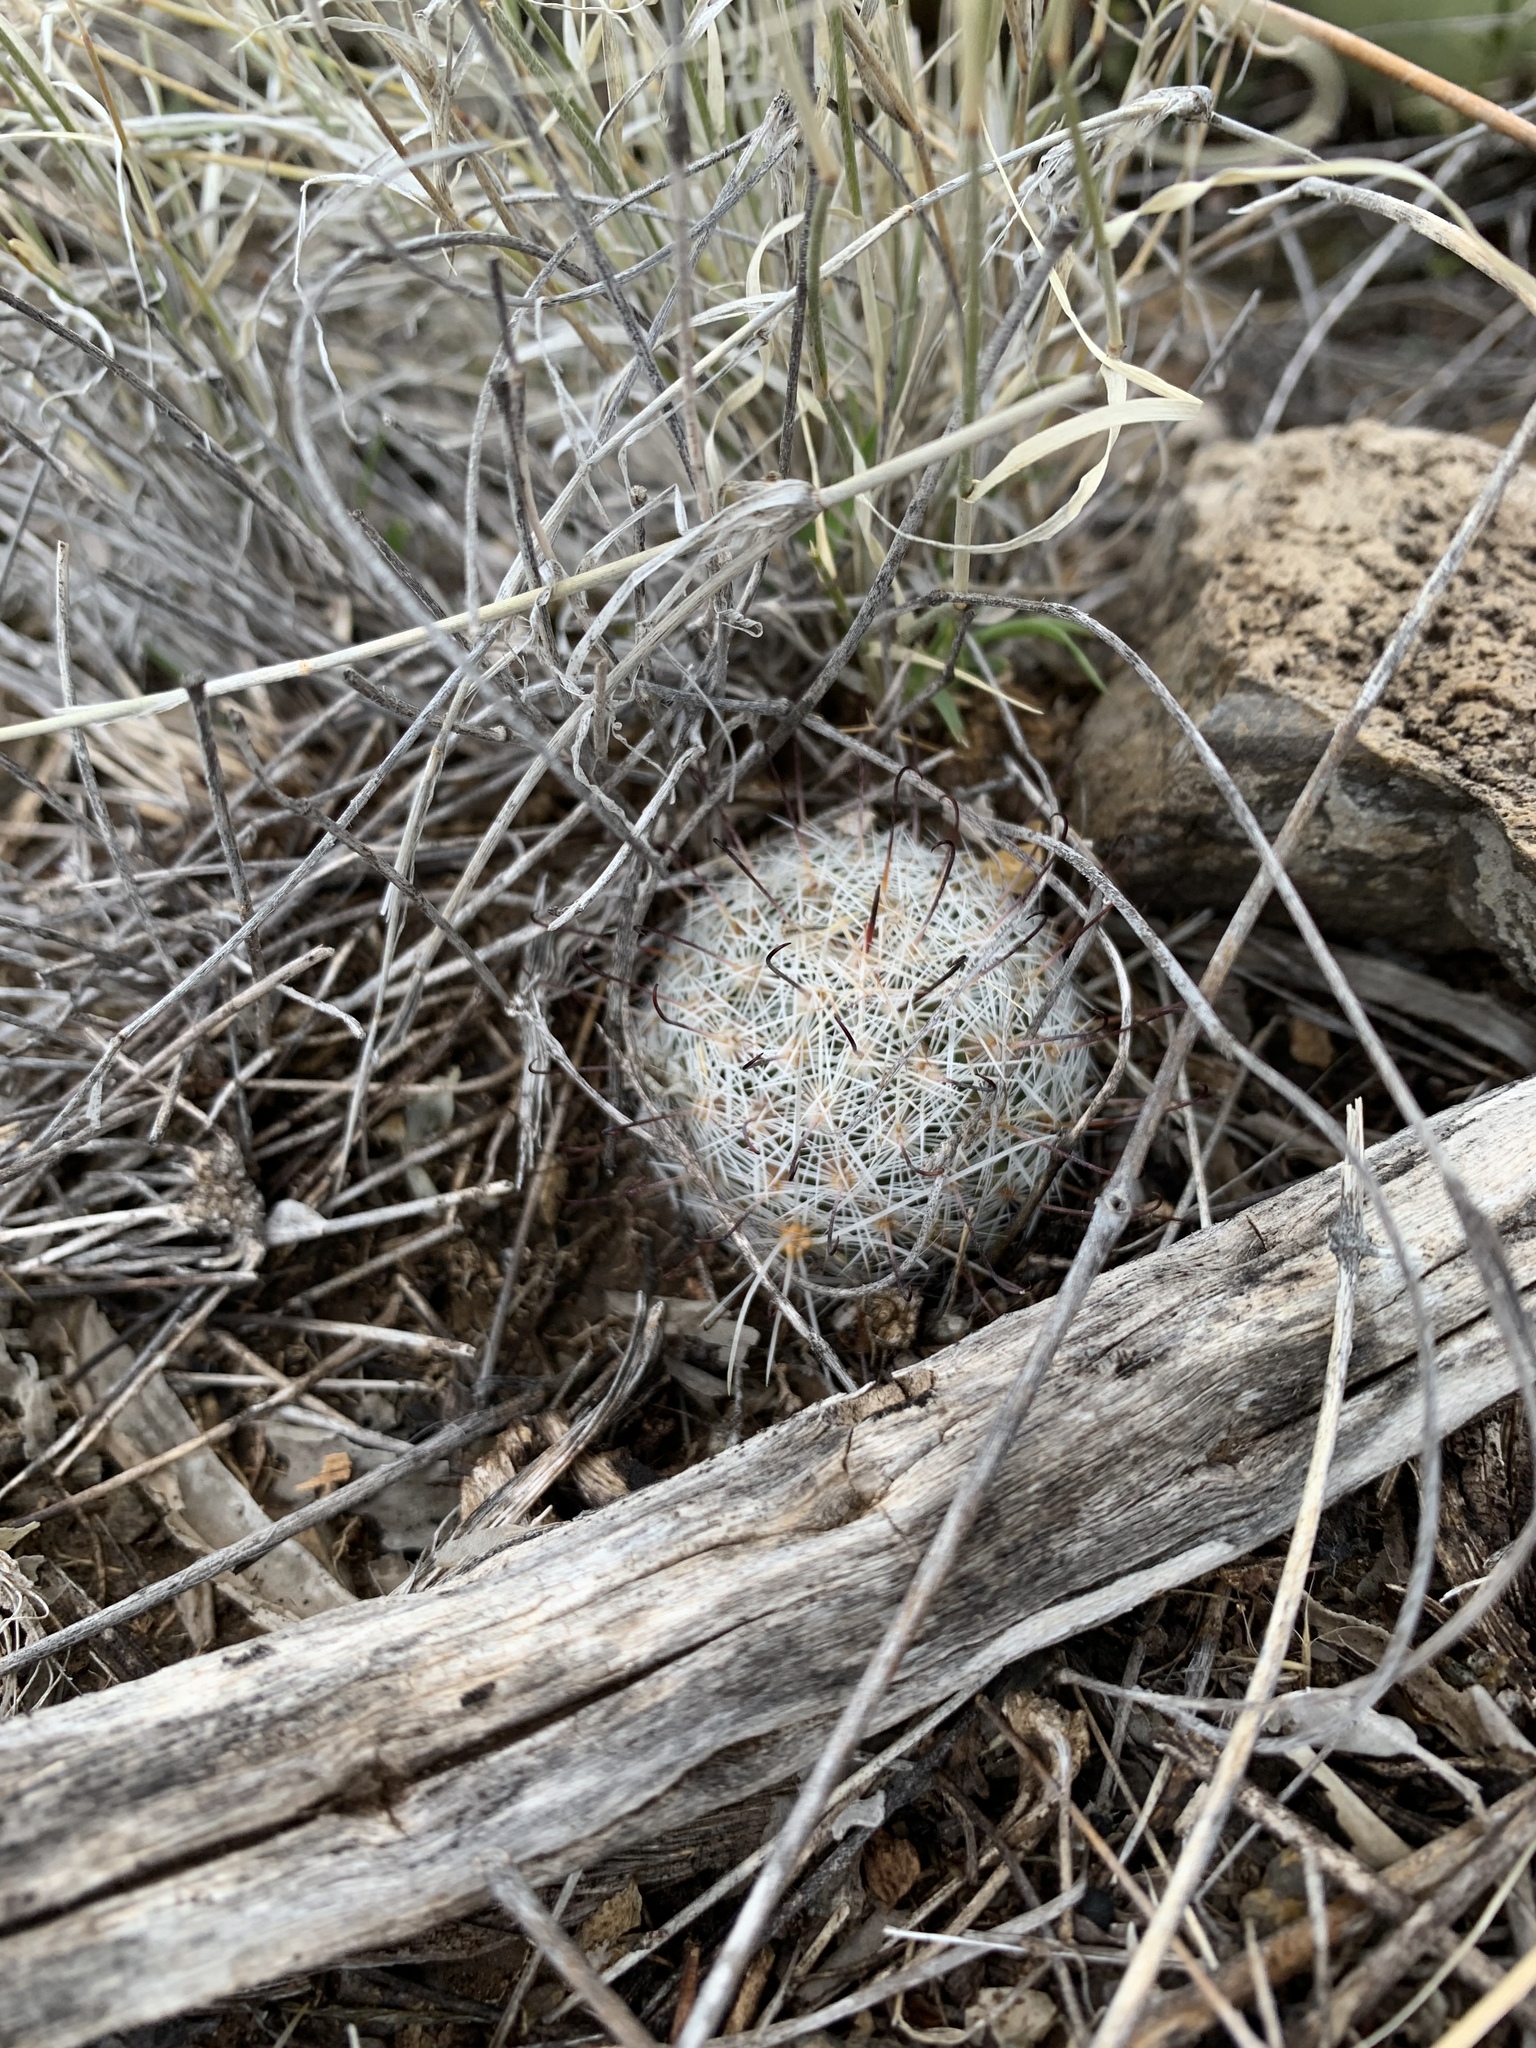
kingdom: Plantae
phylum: Tracheophyta
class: Magnoliopsida
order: Caryophyllales
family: Cactaceae
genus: Cochemiea
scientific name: Cochemiea grahamii
